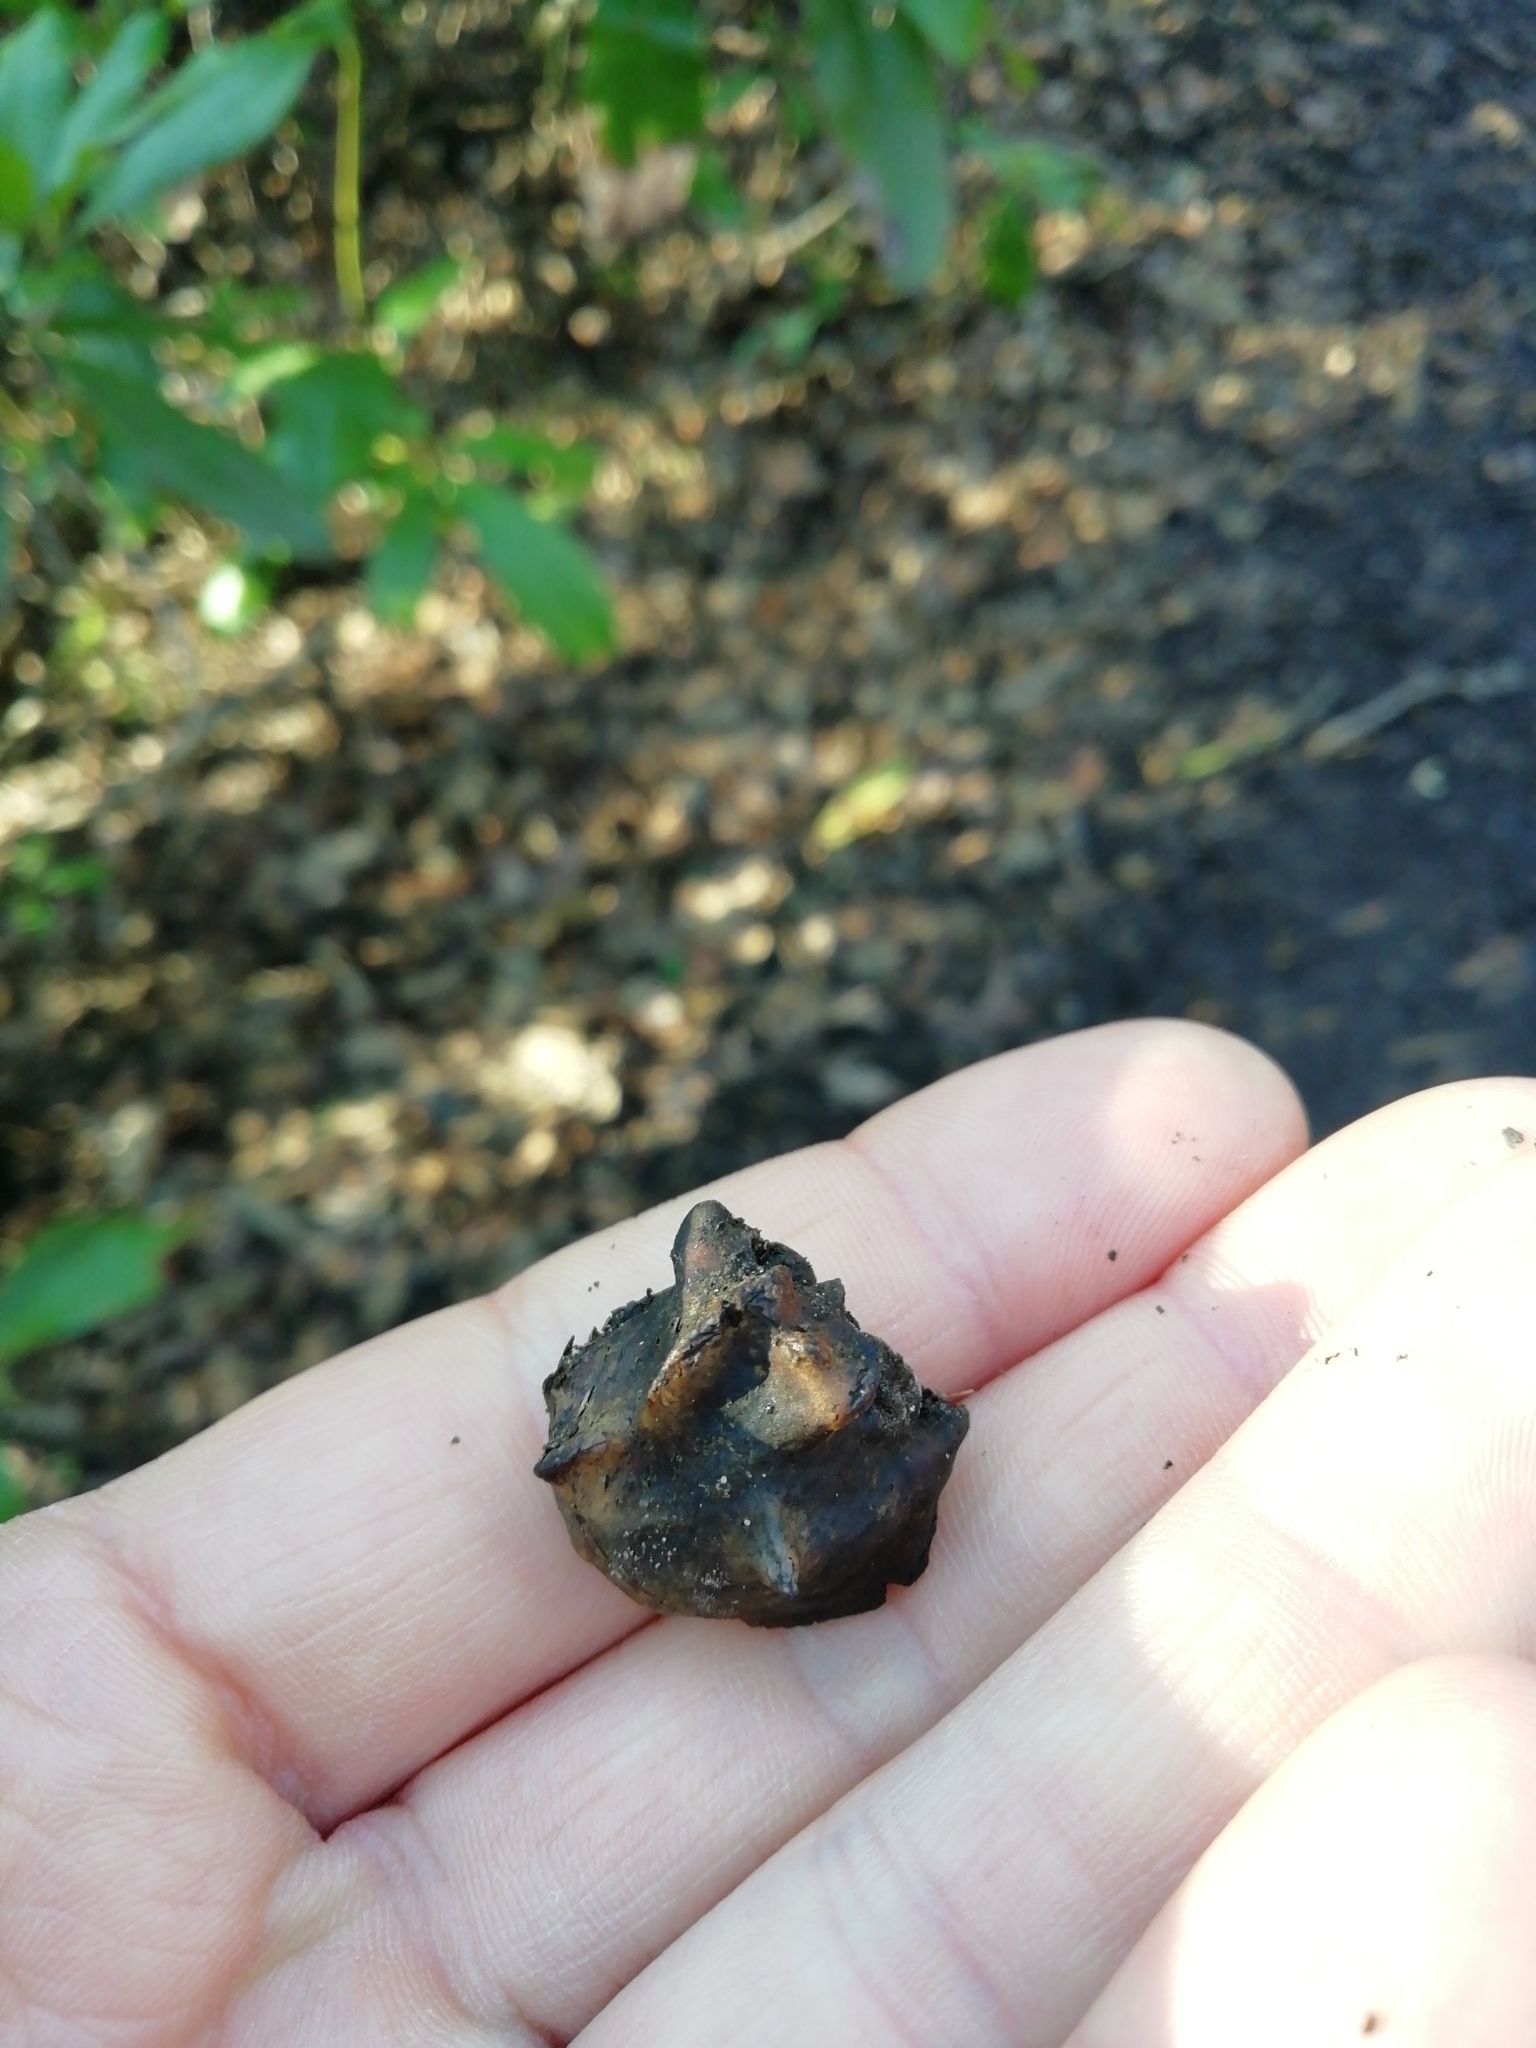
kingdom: Animalia
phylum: Arthropoda
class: Insecta
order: Hymenoptera
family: Cynipidae
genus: Andricus
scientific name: Andricus quercuscalicis
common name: Knopper gall
